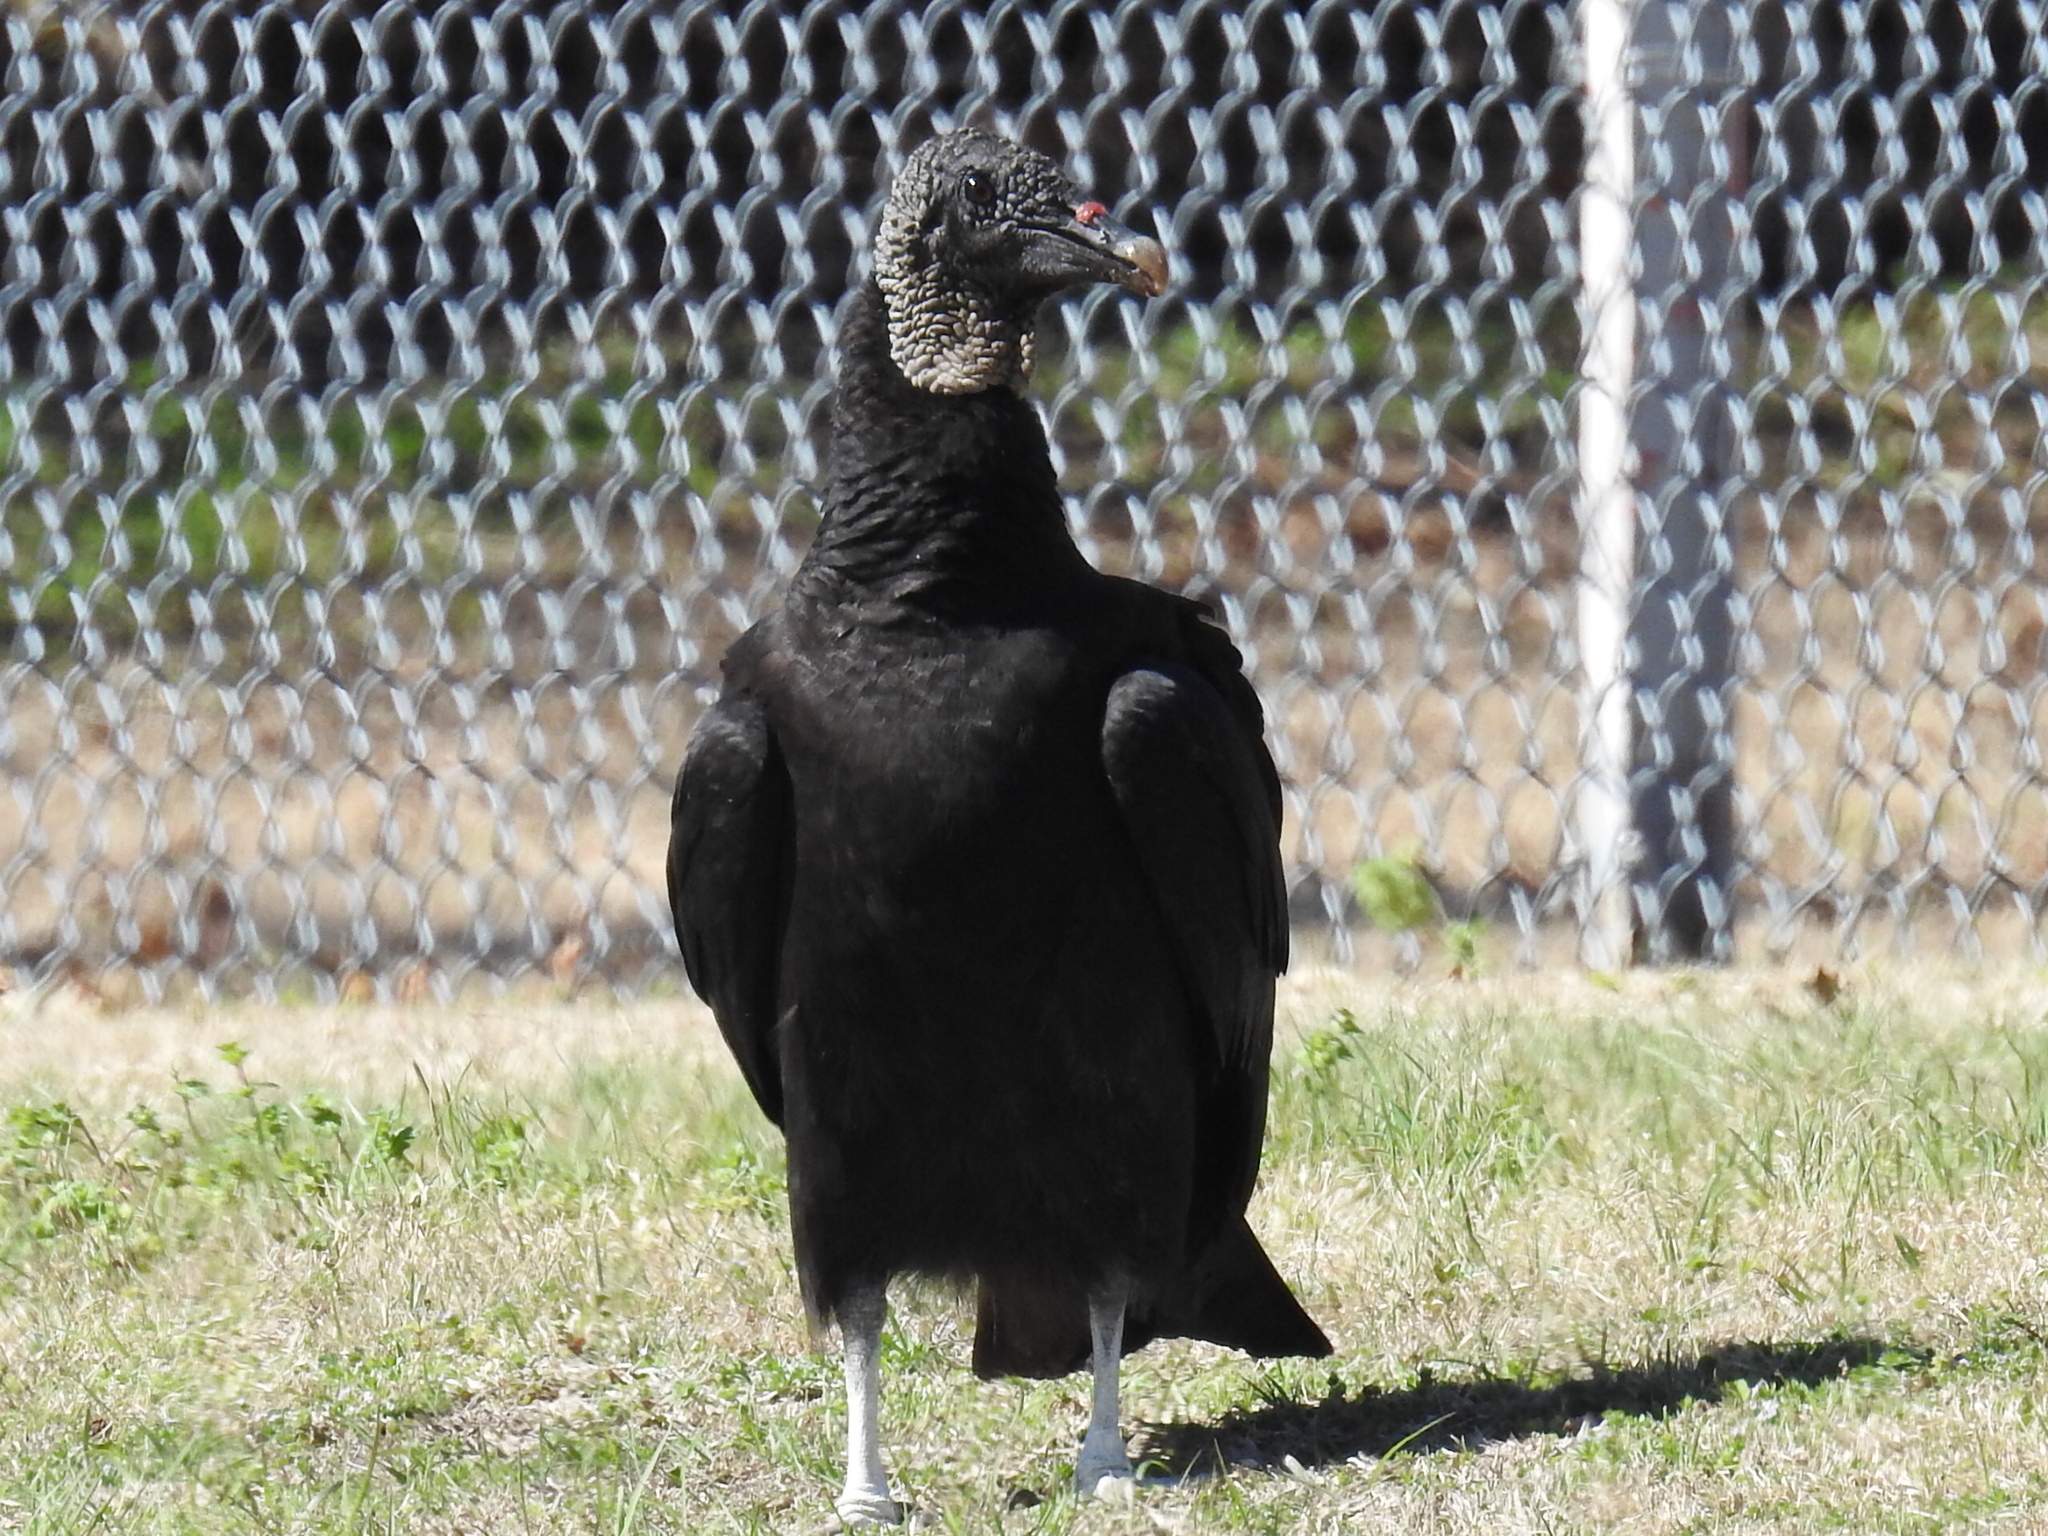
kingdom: Animalia
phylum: Chordata
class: Aves
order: Accipitriformes
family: Cathartidae
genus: Coragyps
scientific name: Coragyps atratus
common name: Black vulture
